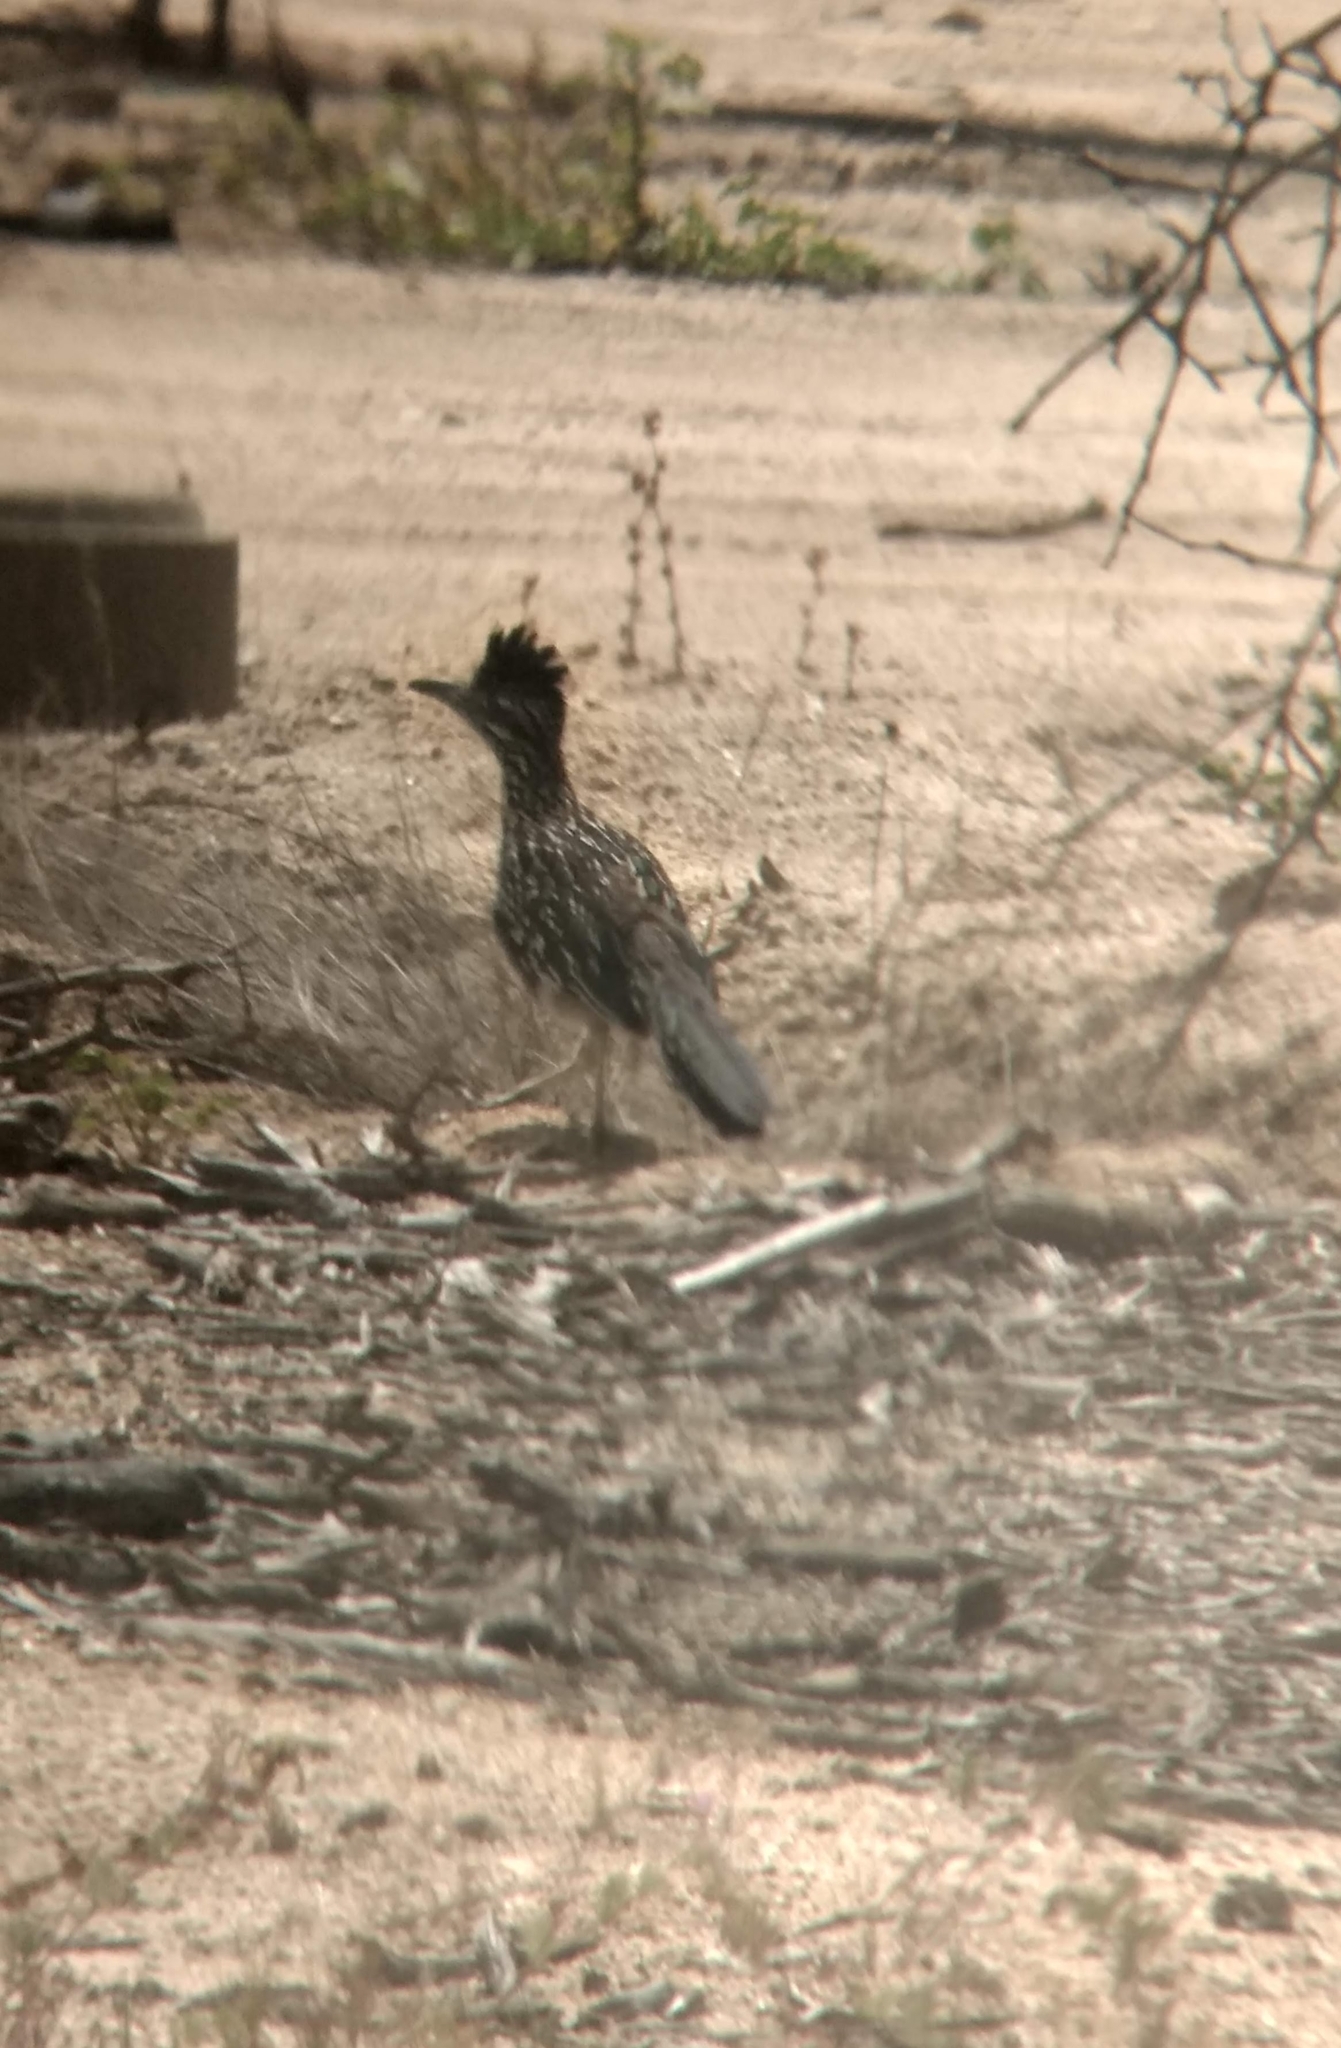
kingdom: Animalia
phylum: Chordata
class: Aves
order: Cuculiformes
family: Cuculidae
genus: Geococcyx
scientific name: Geococcyx californianus
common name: Greater roadrunner
